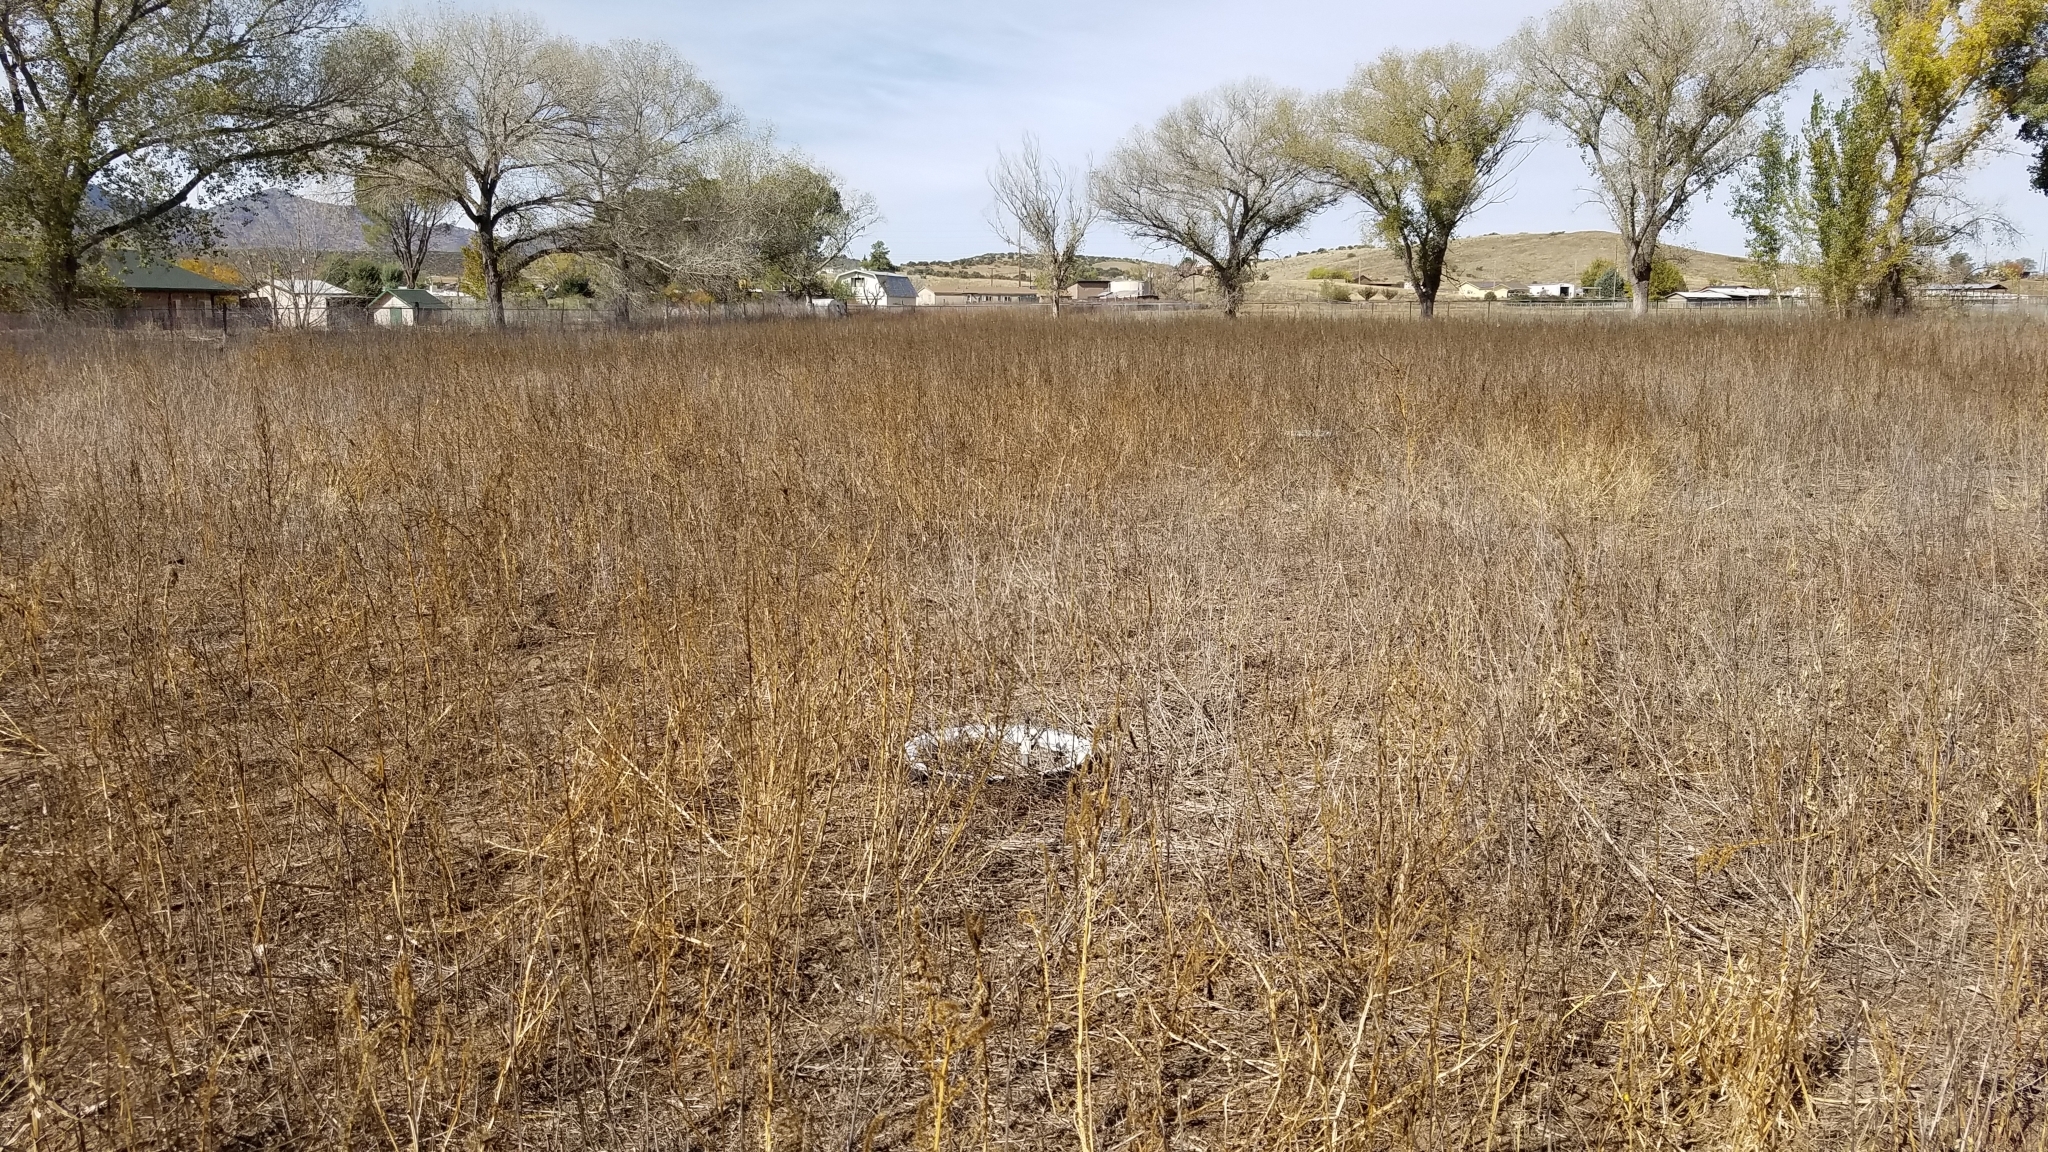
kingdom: Plantae
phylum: Tracheophyta
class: Magnoliopsida
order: Caryophyllales
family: Amaranthaceae
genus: Amaranthus
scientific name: Amaranthus palmeri
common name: Dioecious amaranth
